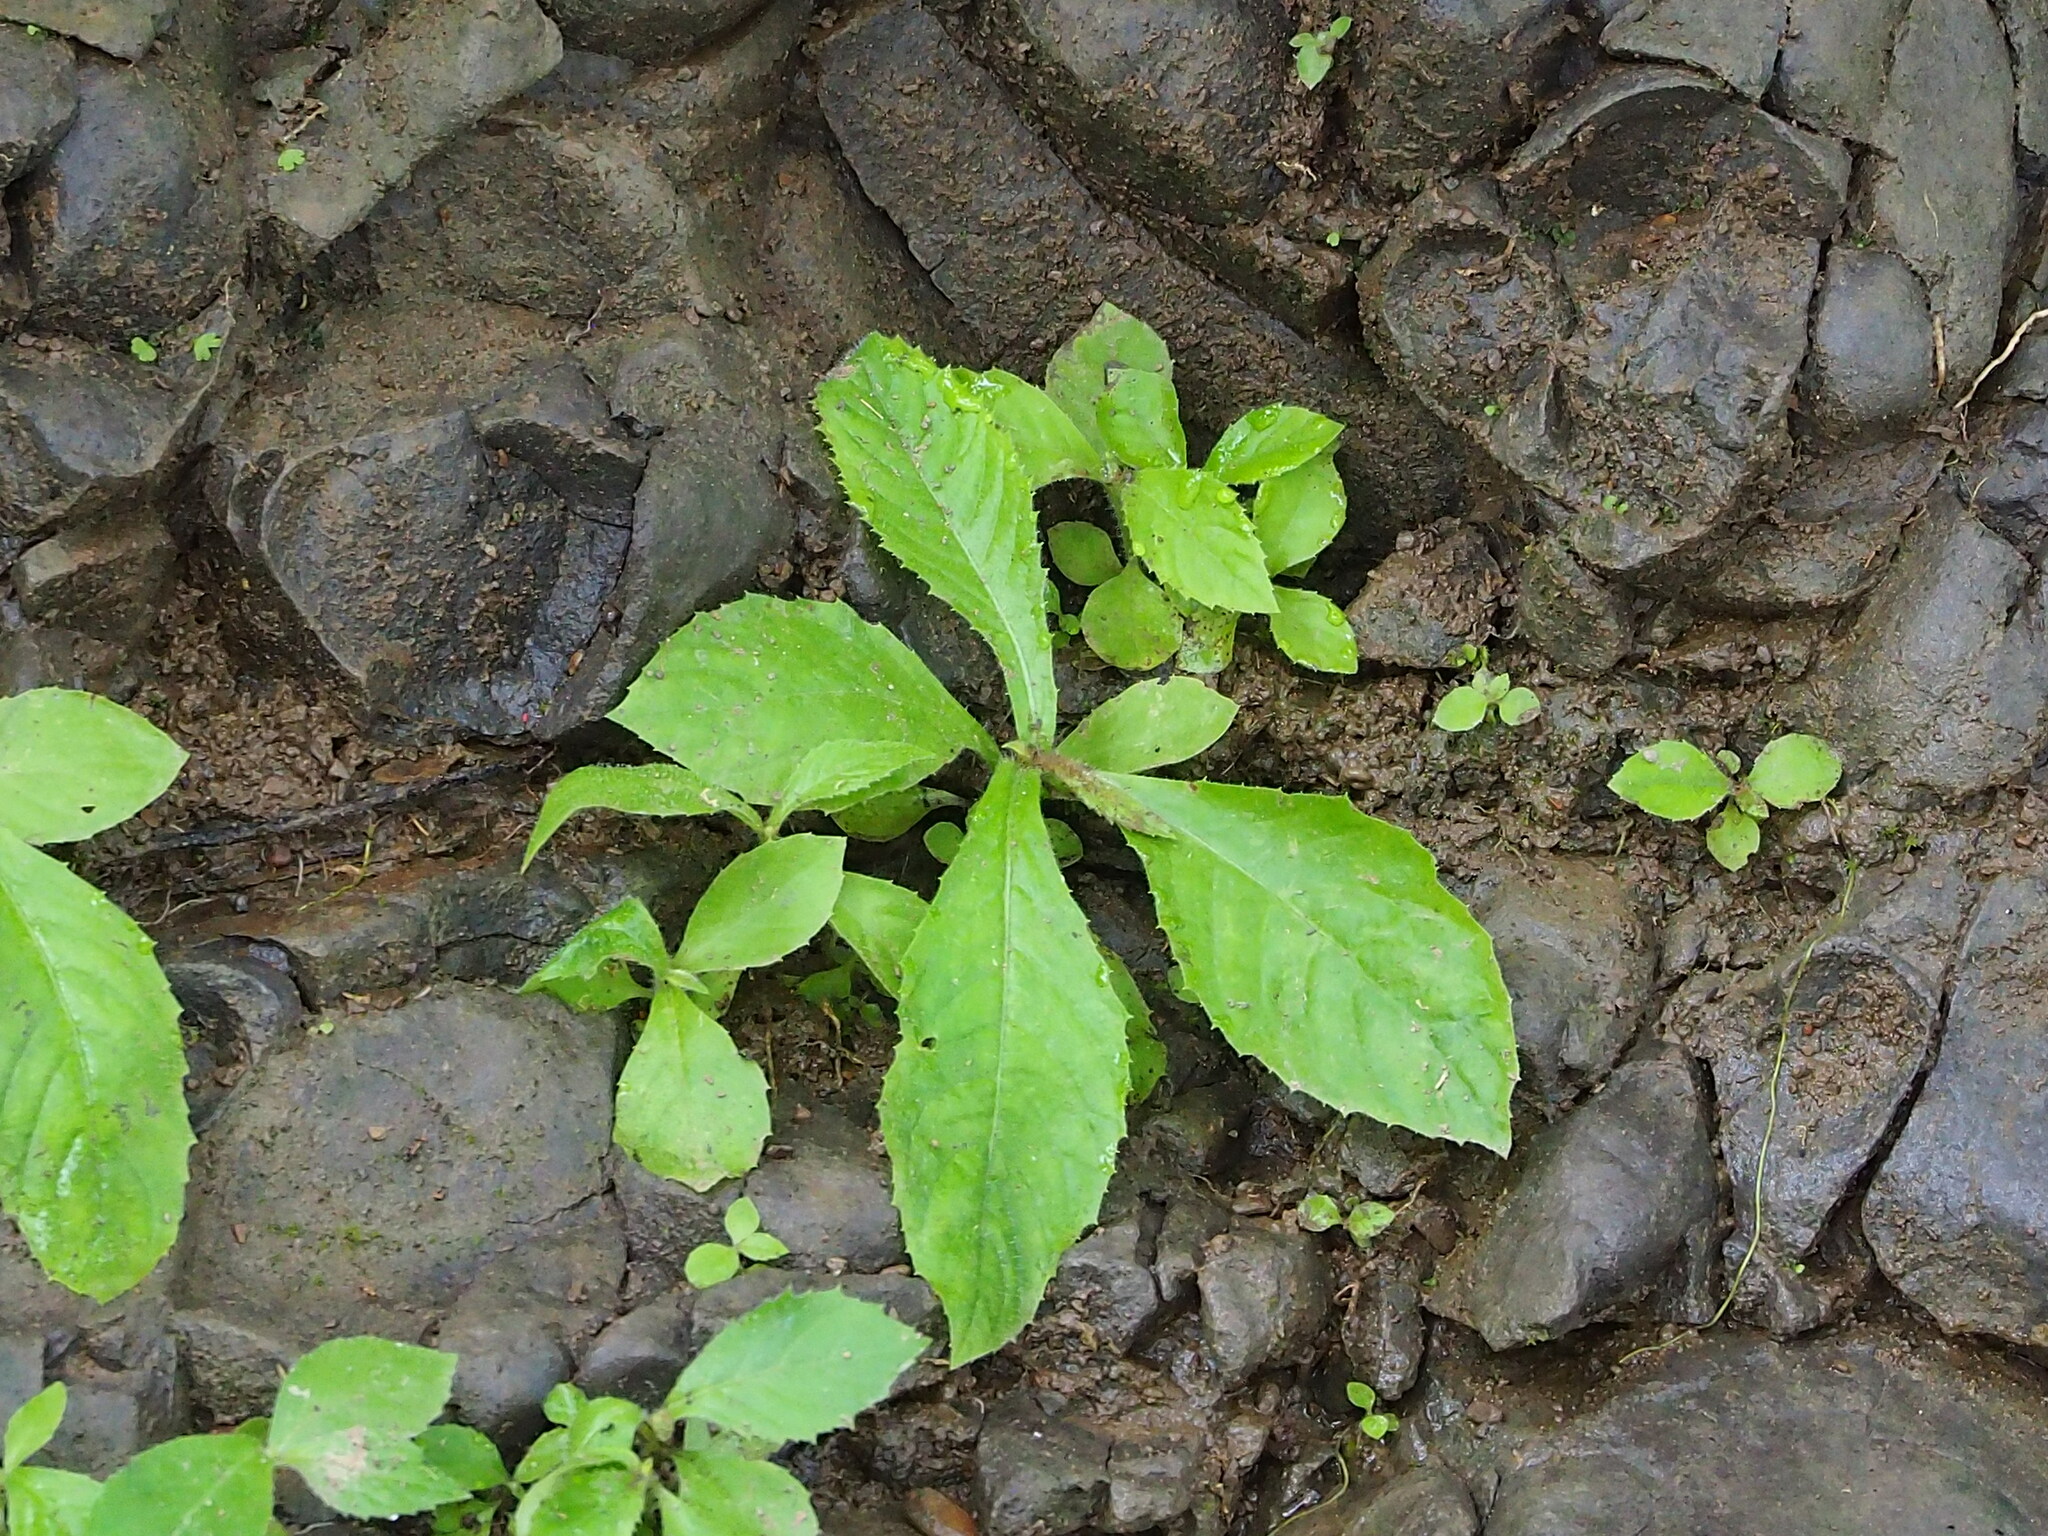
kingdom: Plantae
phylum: Tracheophyta
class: Magnoliopsida
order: Lamiales
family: Gesneriaceae
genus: Rhynchotechum
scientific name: Rhynchotechum discolor
